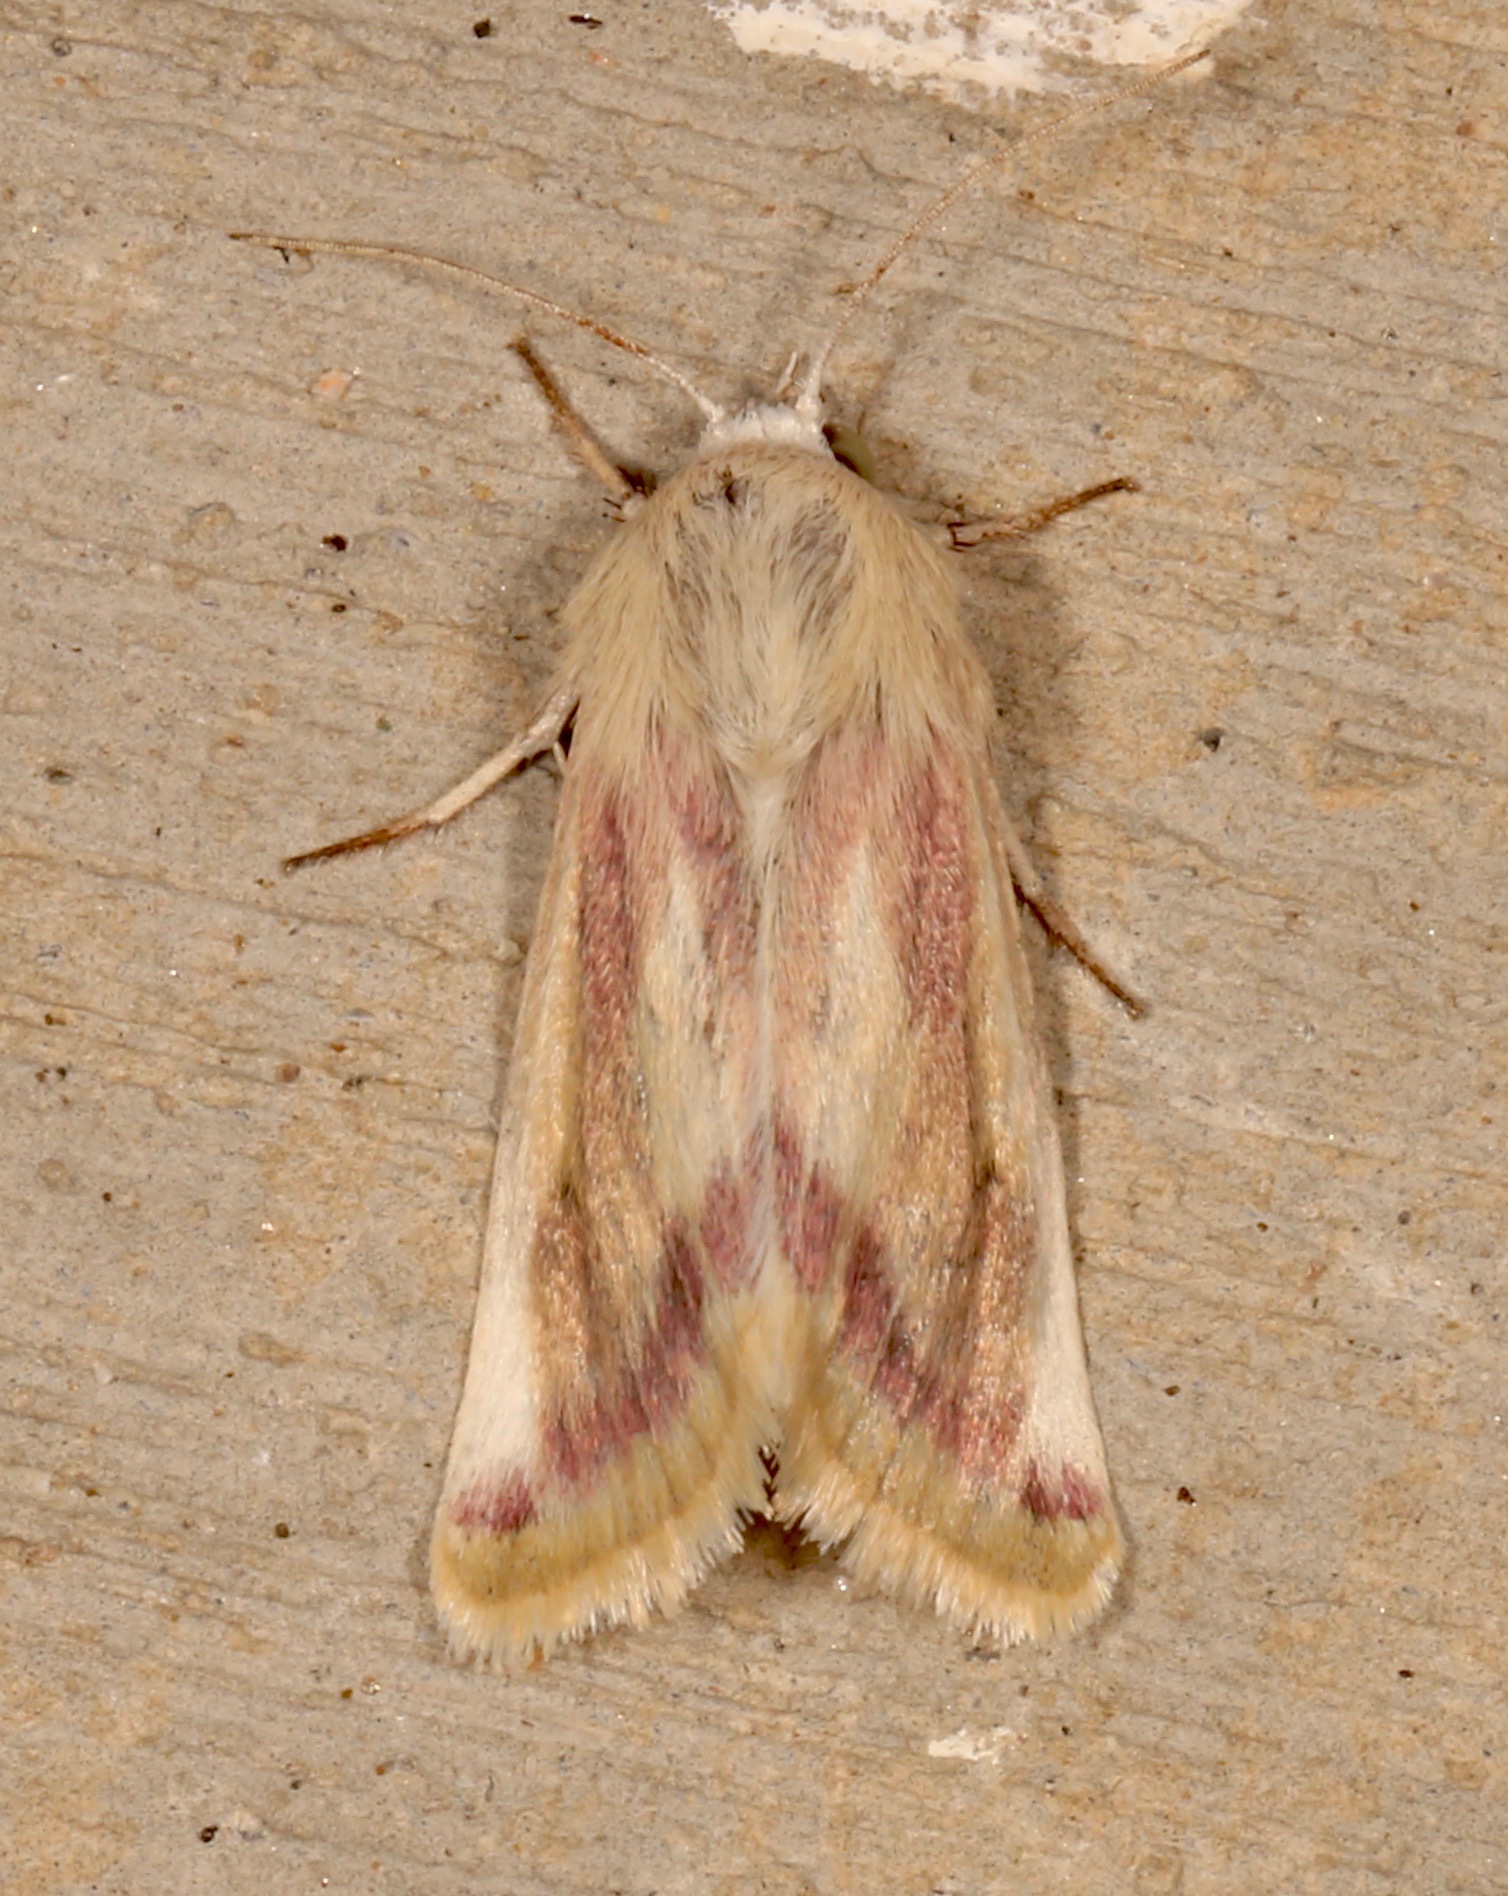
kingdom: Animalia
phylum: Arthropoda
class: Insecta
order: Lepidoptera
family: Noctuidae
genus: Schinia
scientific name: Schinia niveicosta
